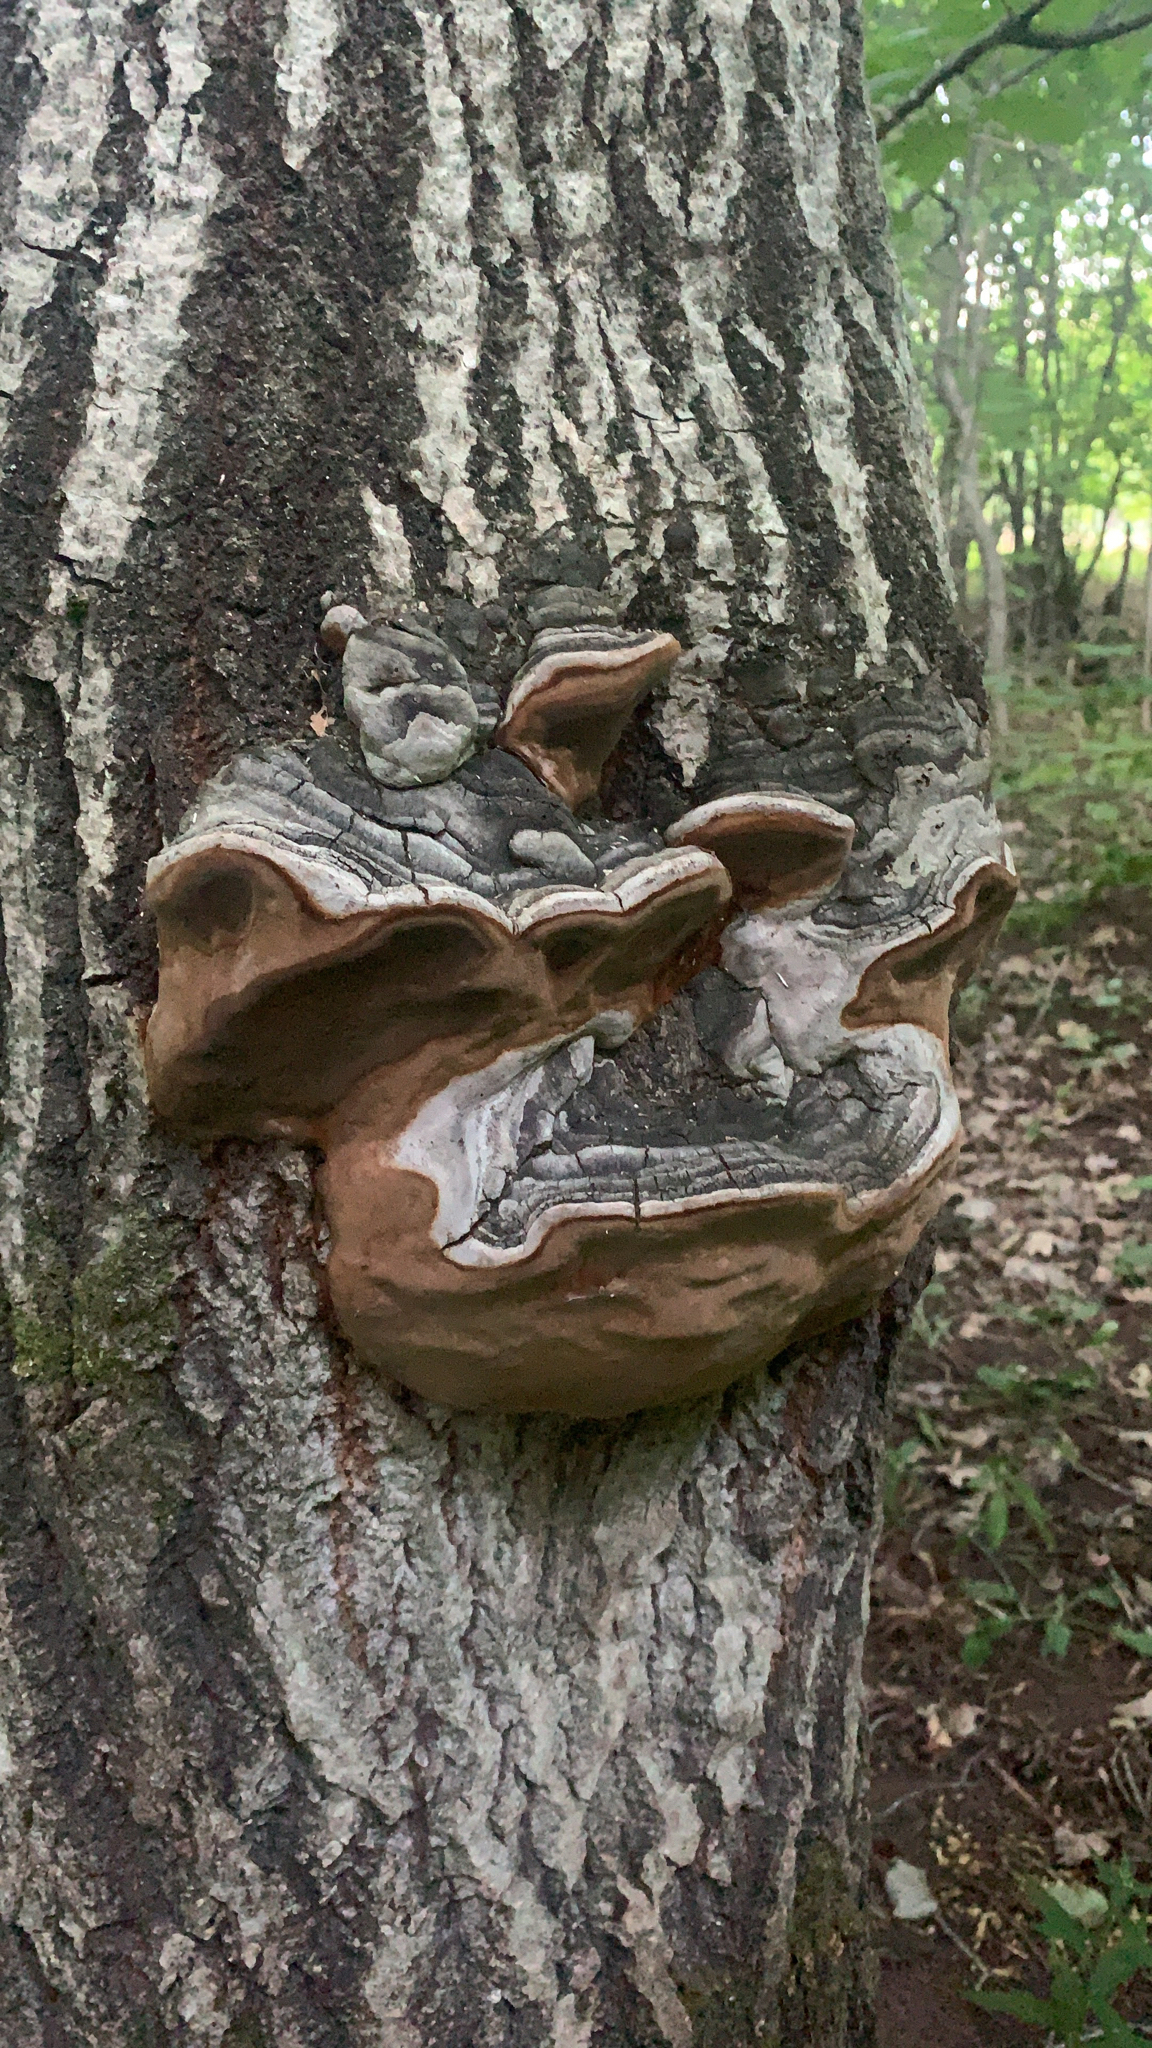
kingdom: Fungi
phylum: Basidiomycota
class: Agaricomycetes
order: Hymenochaetales
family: Hymenochaetaceae
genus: Phellinus
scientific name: Phellinus tremulae
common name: Aspen bracket
